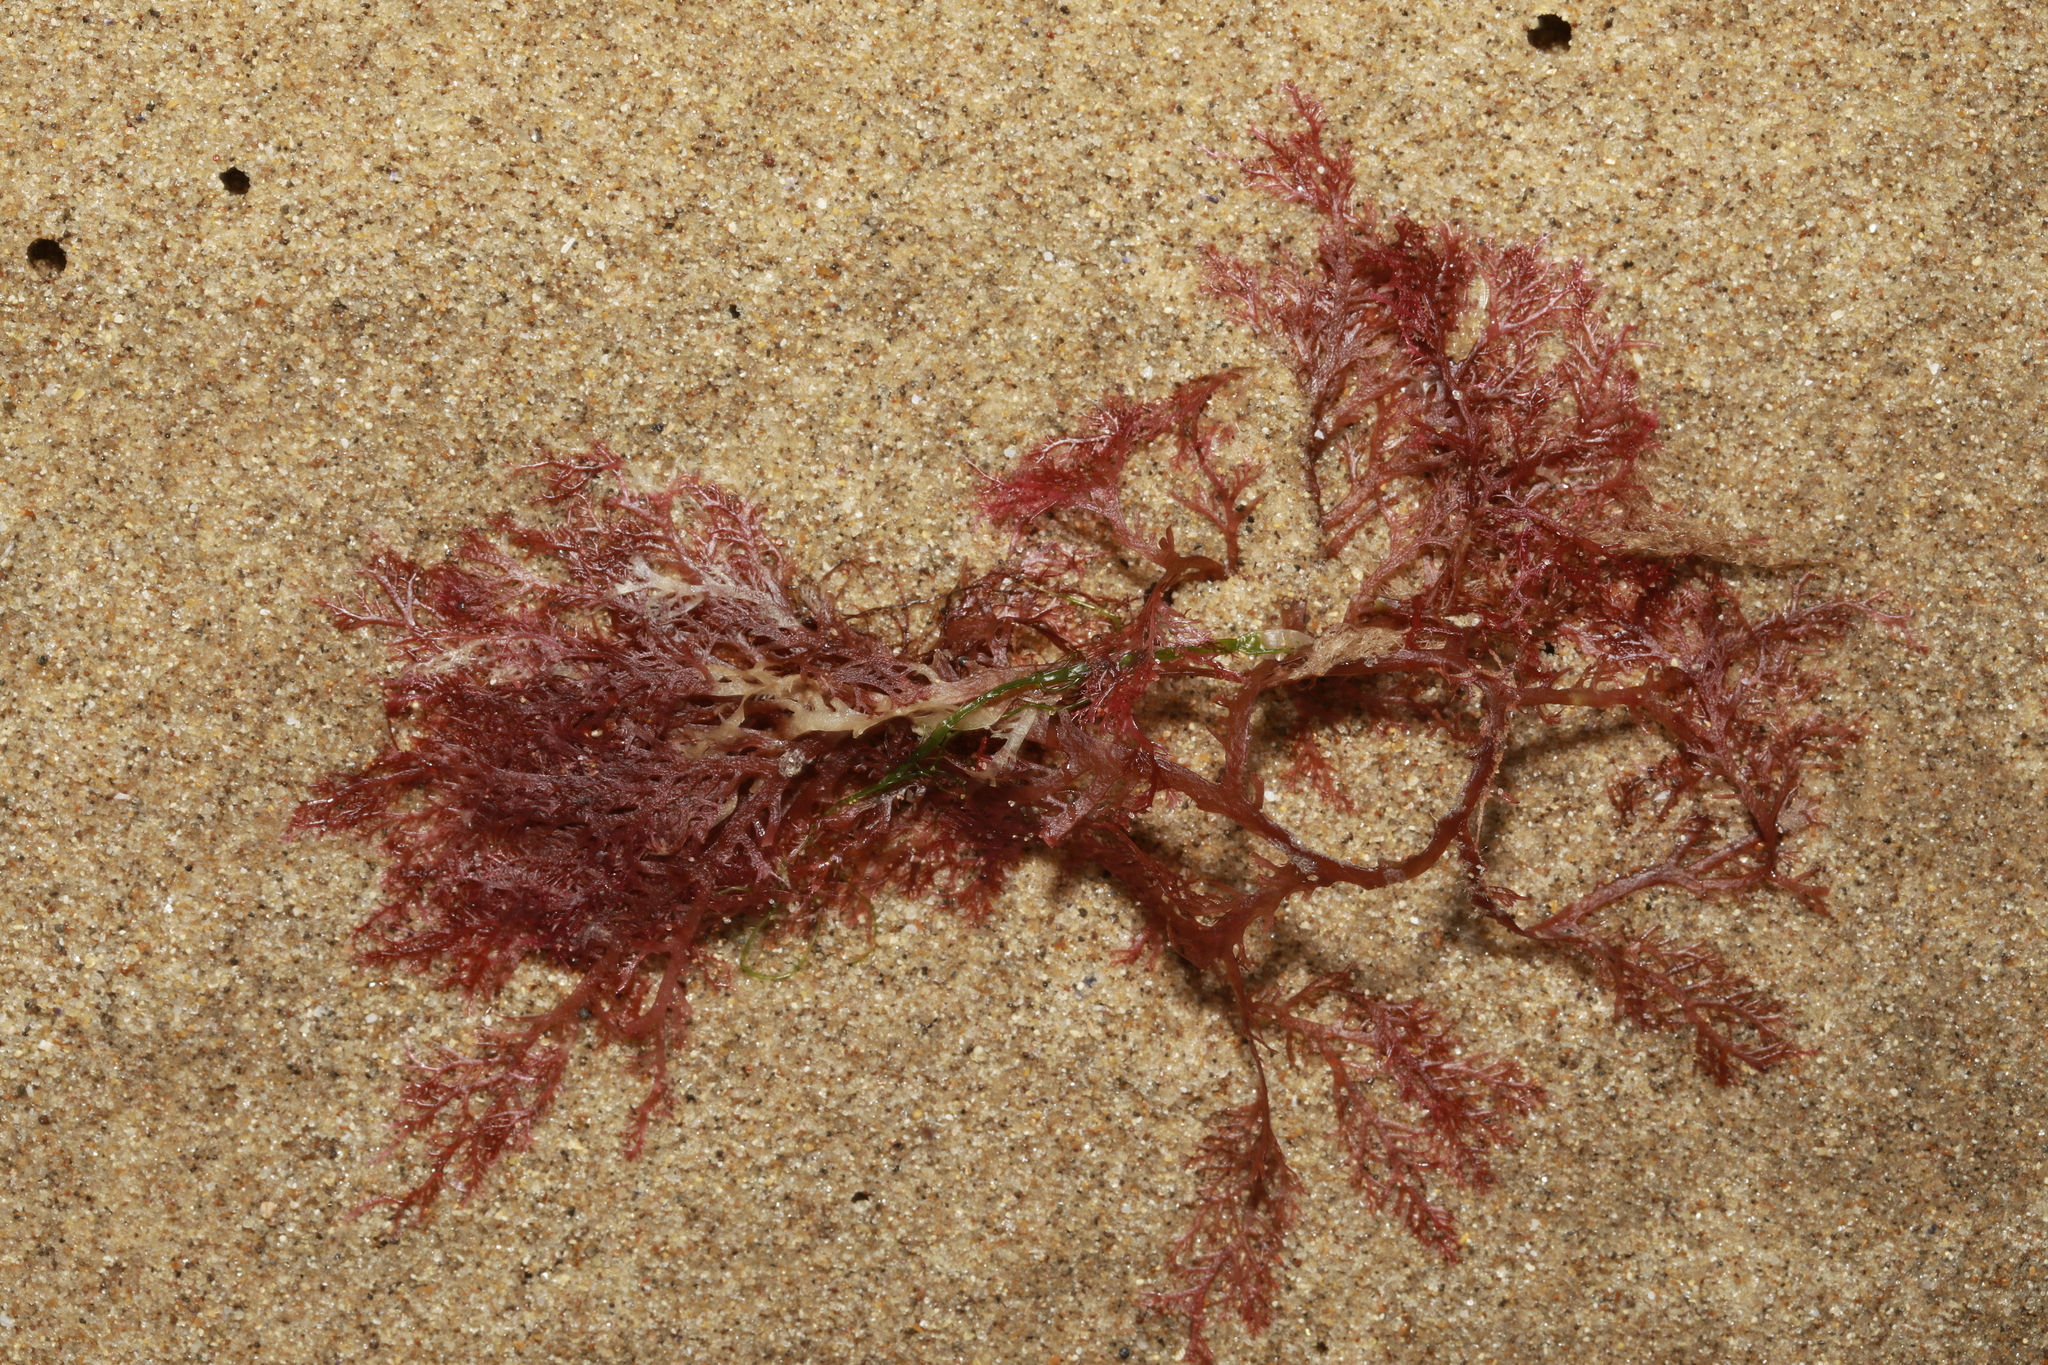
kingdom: Plantae
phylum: Rhodophyta
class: Florideophyceae
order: Plocamiales
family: Plocamiaceae
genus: Plocamium
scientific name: Plocamium cartilagineum
